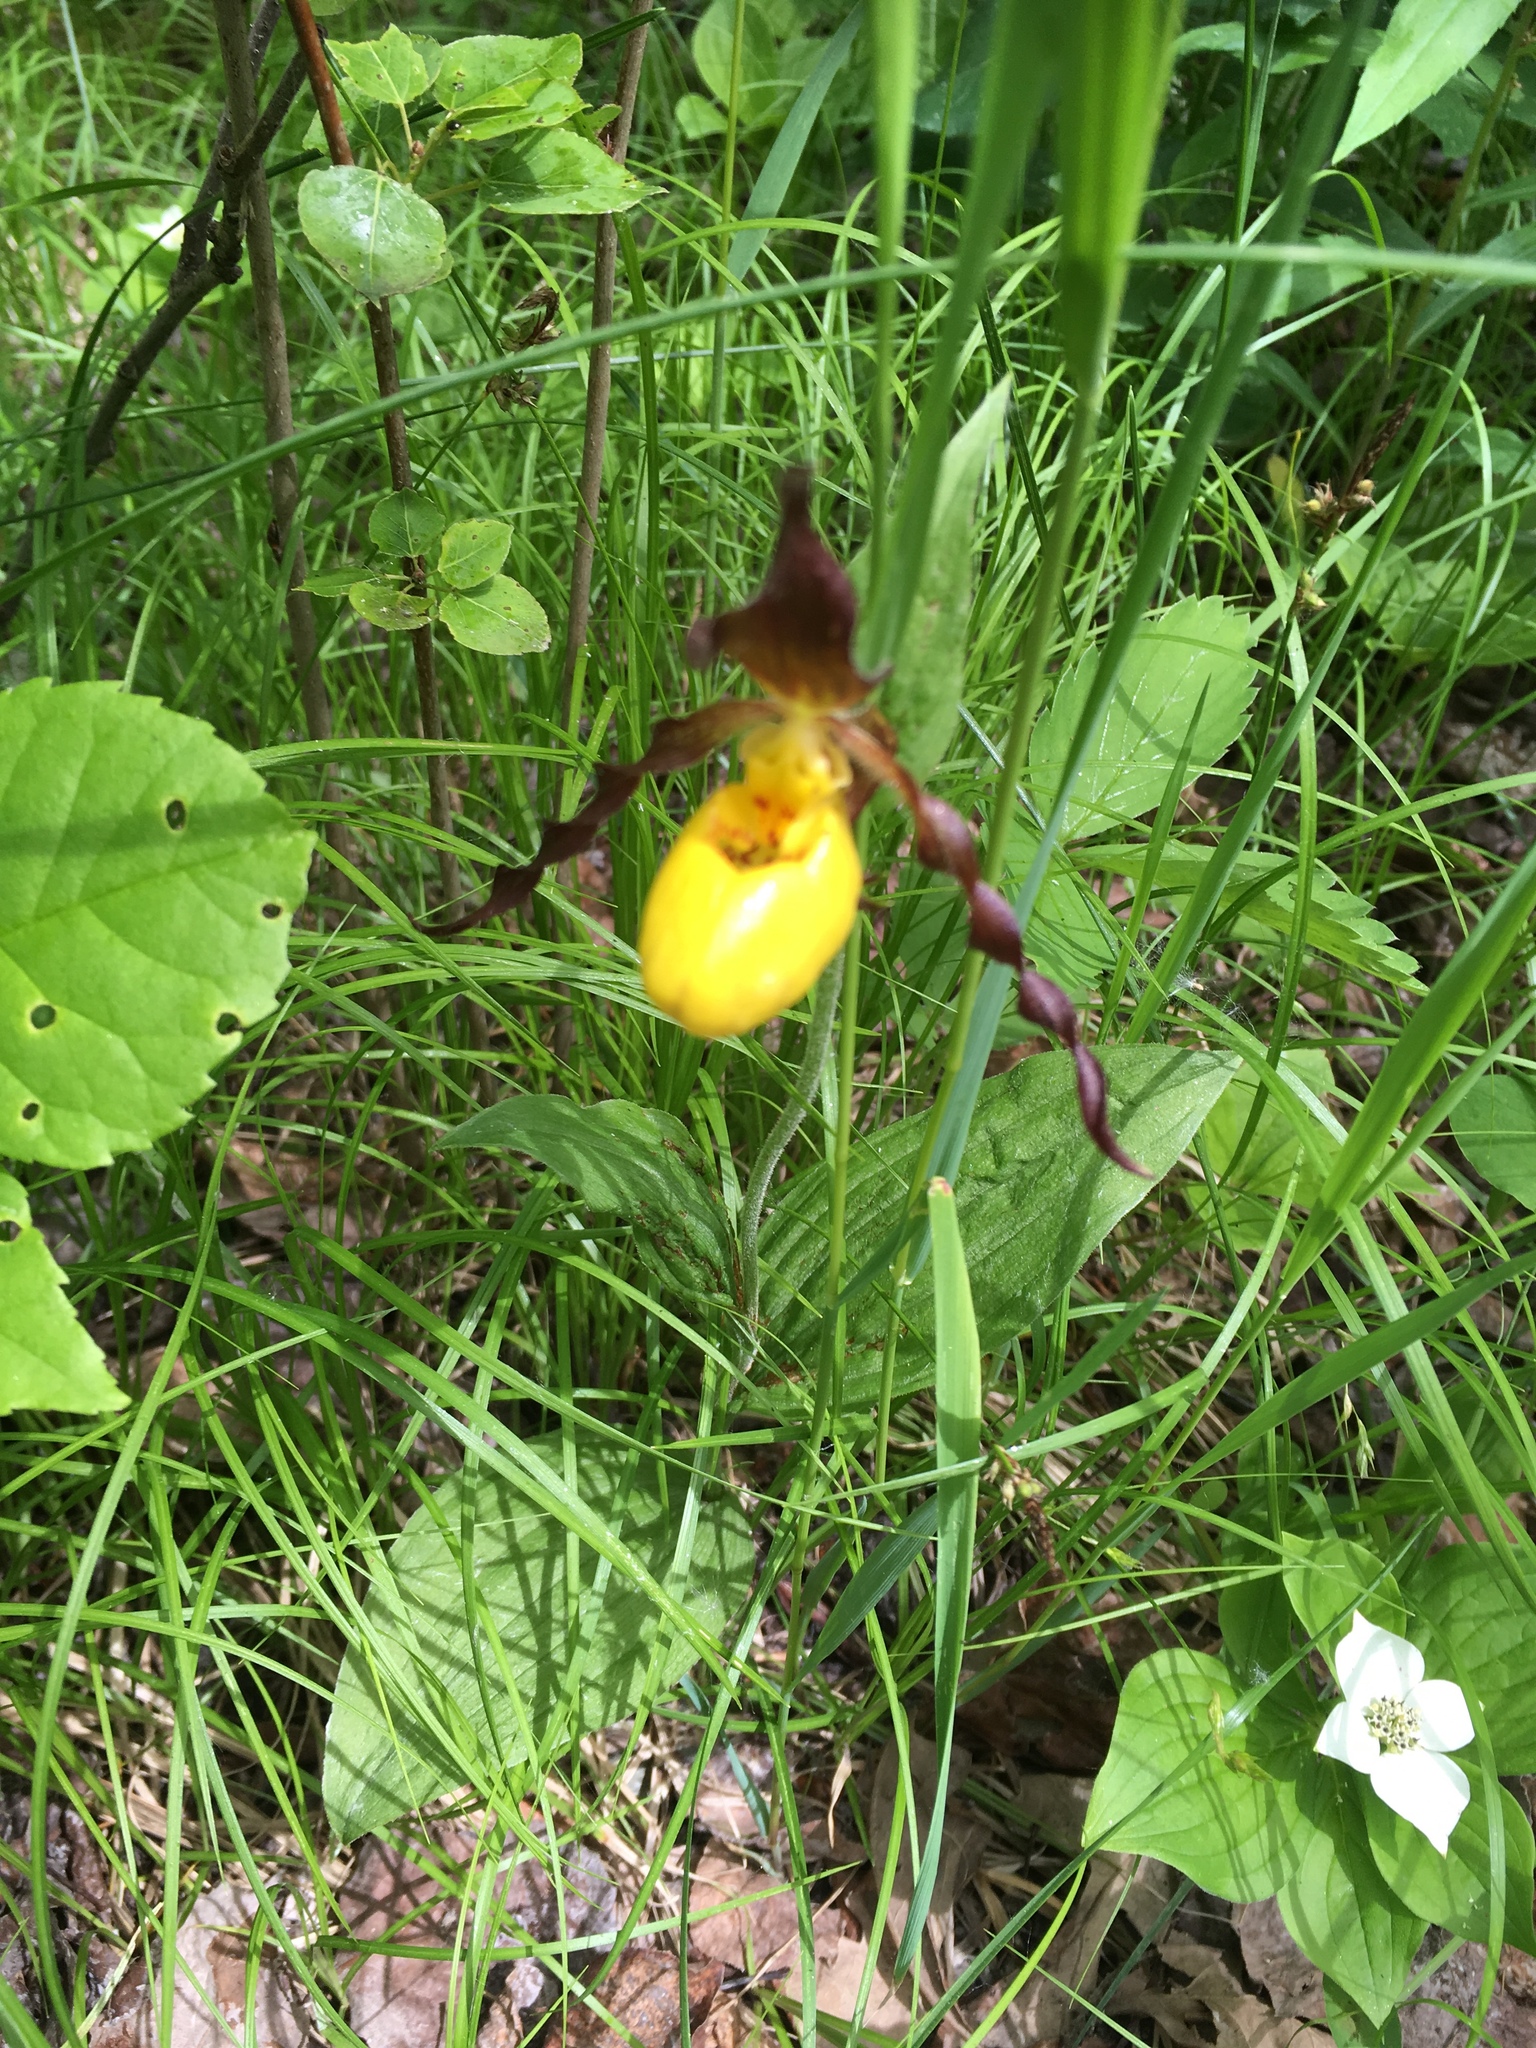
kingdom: Plantae
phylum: Tracheophyta
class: Liliopsida
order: Asparagales
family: Orchidaceae
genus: Cypripedium
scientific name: Cypripedium parviflorum
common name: American yellow lady's-slipper
